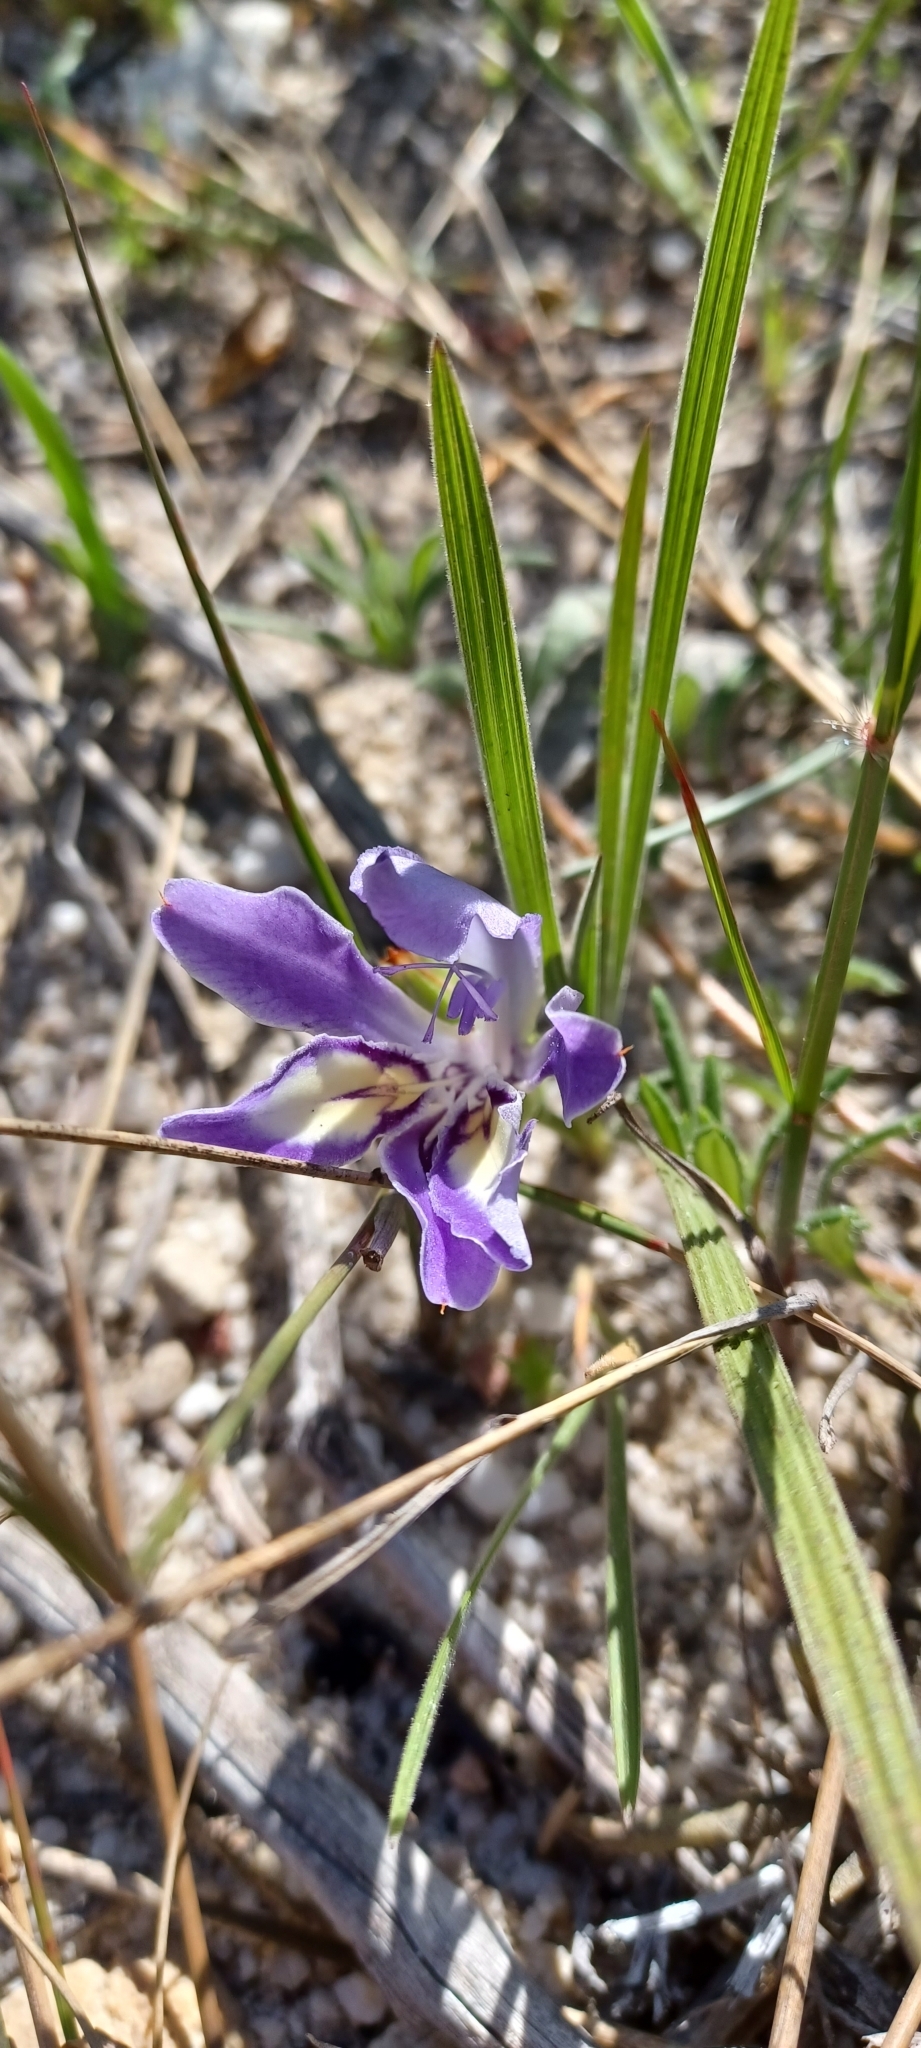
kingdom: Plantae
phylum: Tracheophyta
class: Liliopsida
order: Asparagales
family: Iridaceae
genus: Babiana
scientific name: Babiana ambigua
